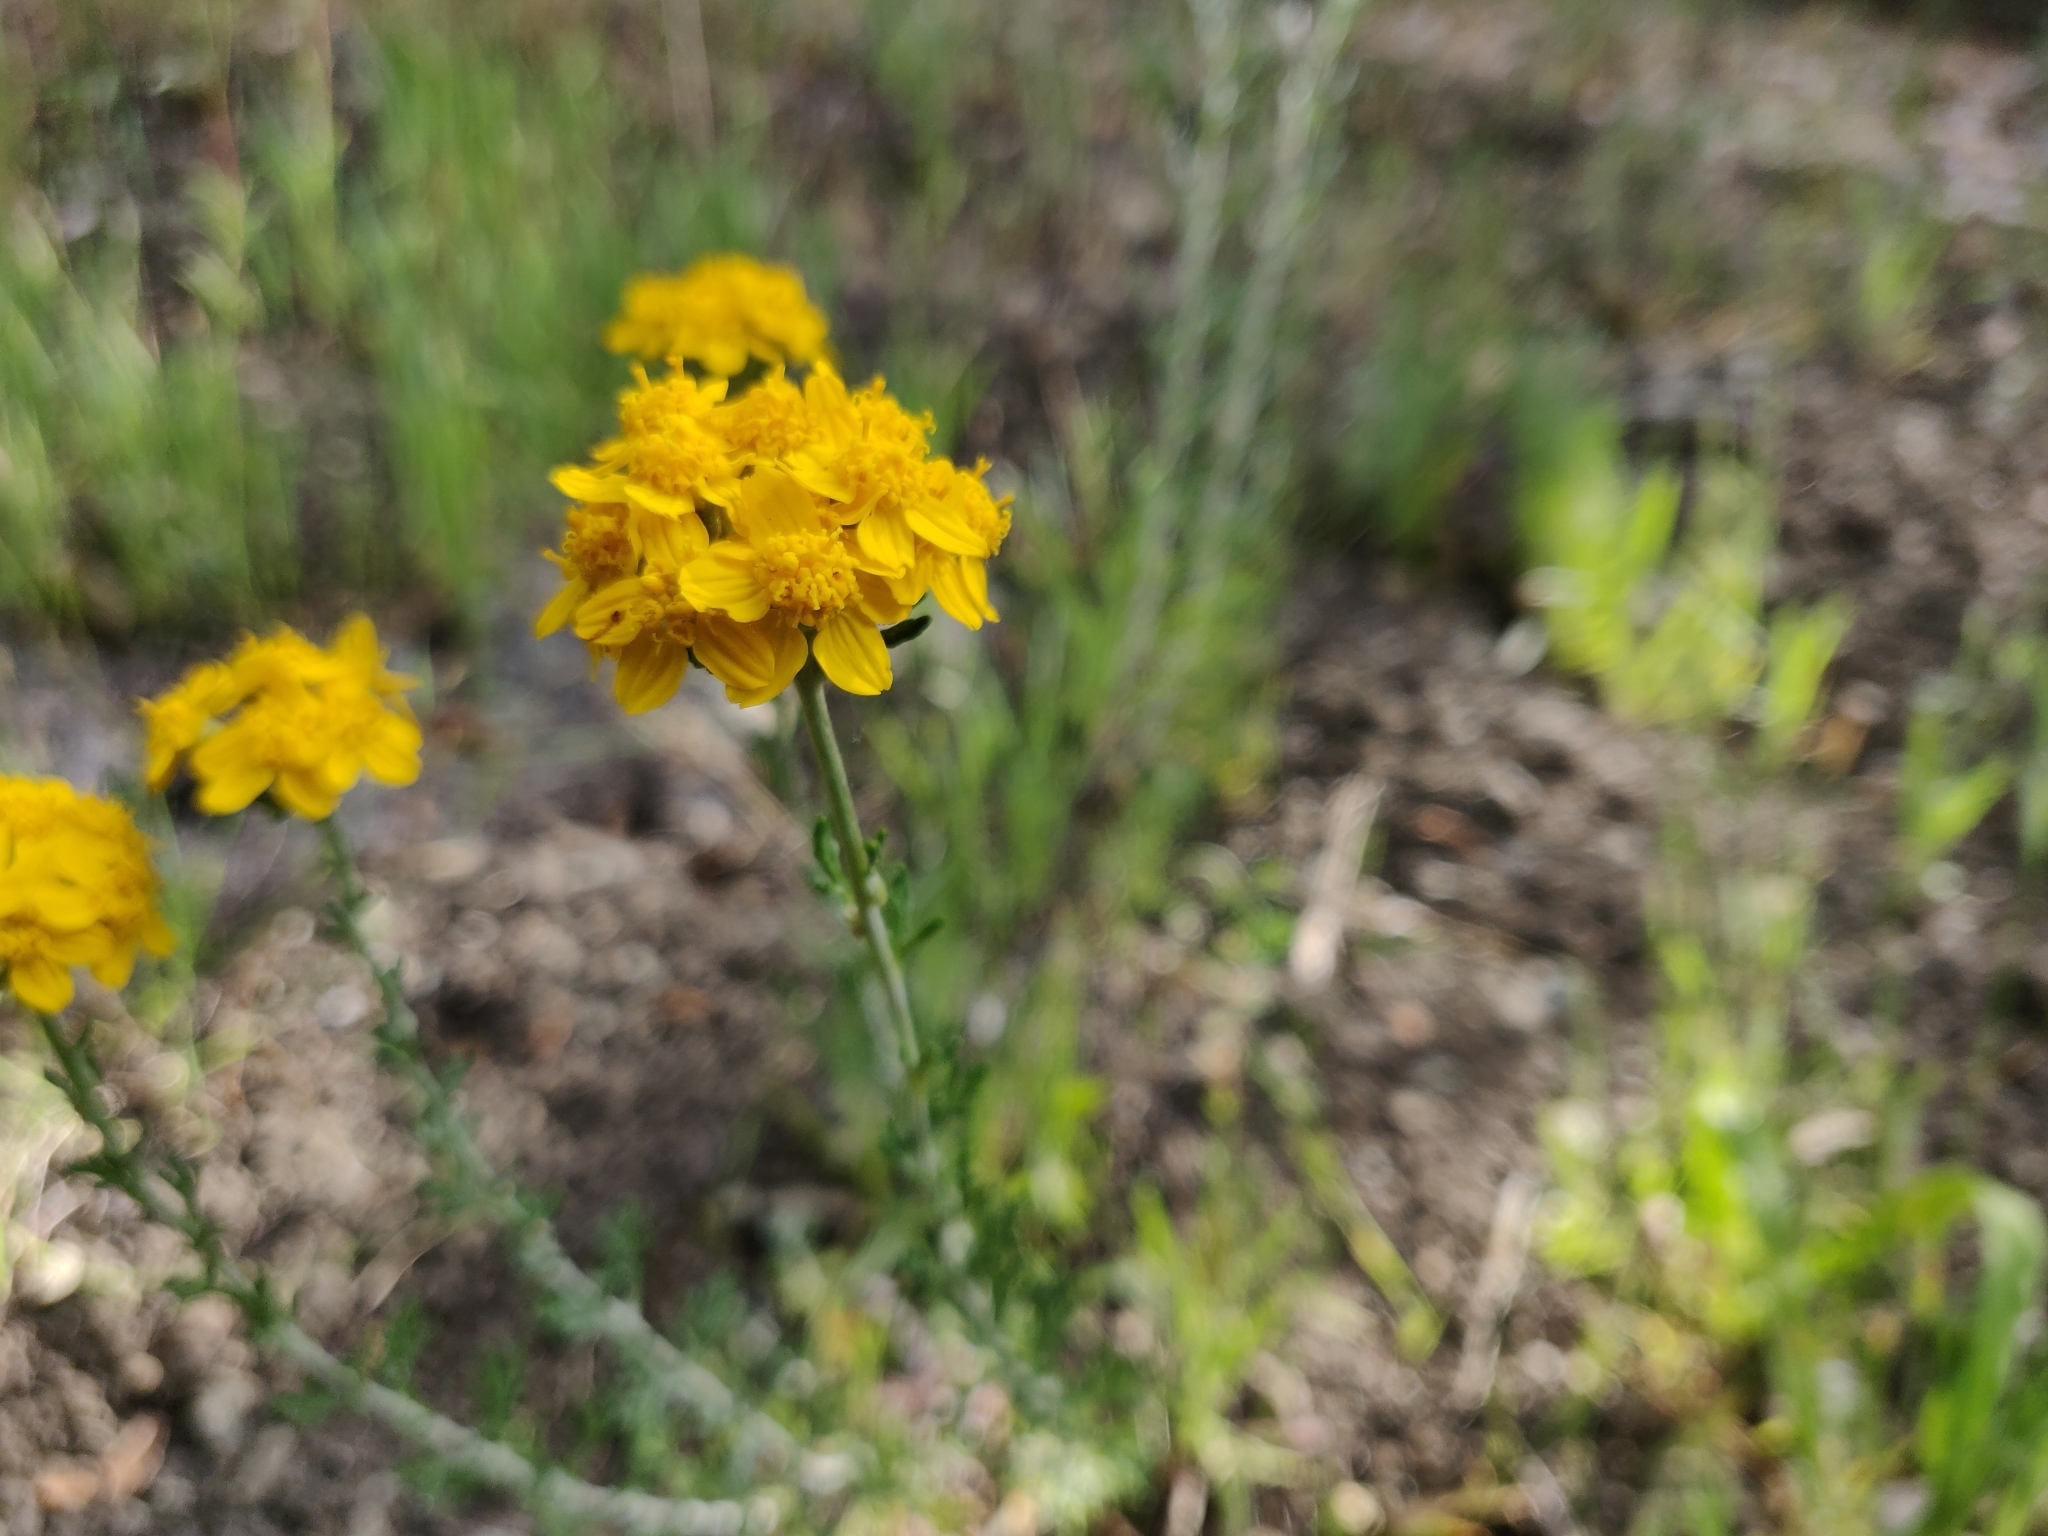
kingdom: Plantae
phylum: Tracheophyta
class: Magnoliopsida
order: Asterales
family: Asteraceae
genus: Eriophyllum
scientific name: Eriophyllum confertiflorum
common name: Golden-yarrow
